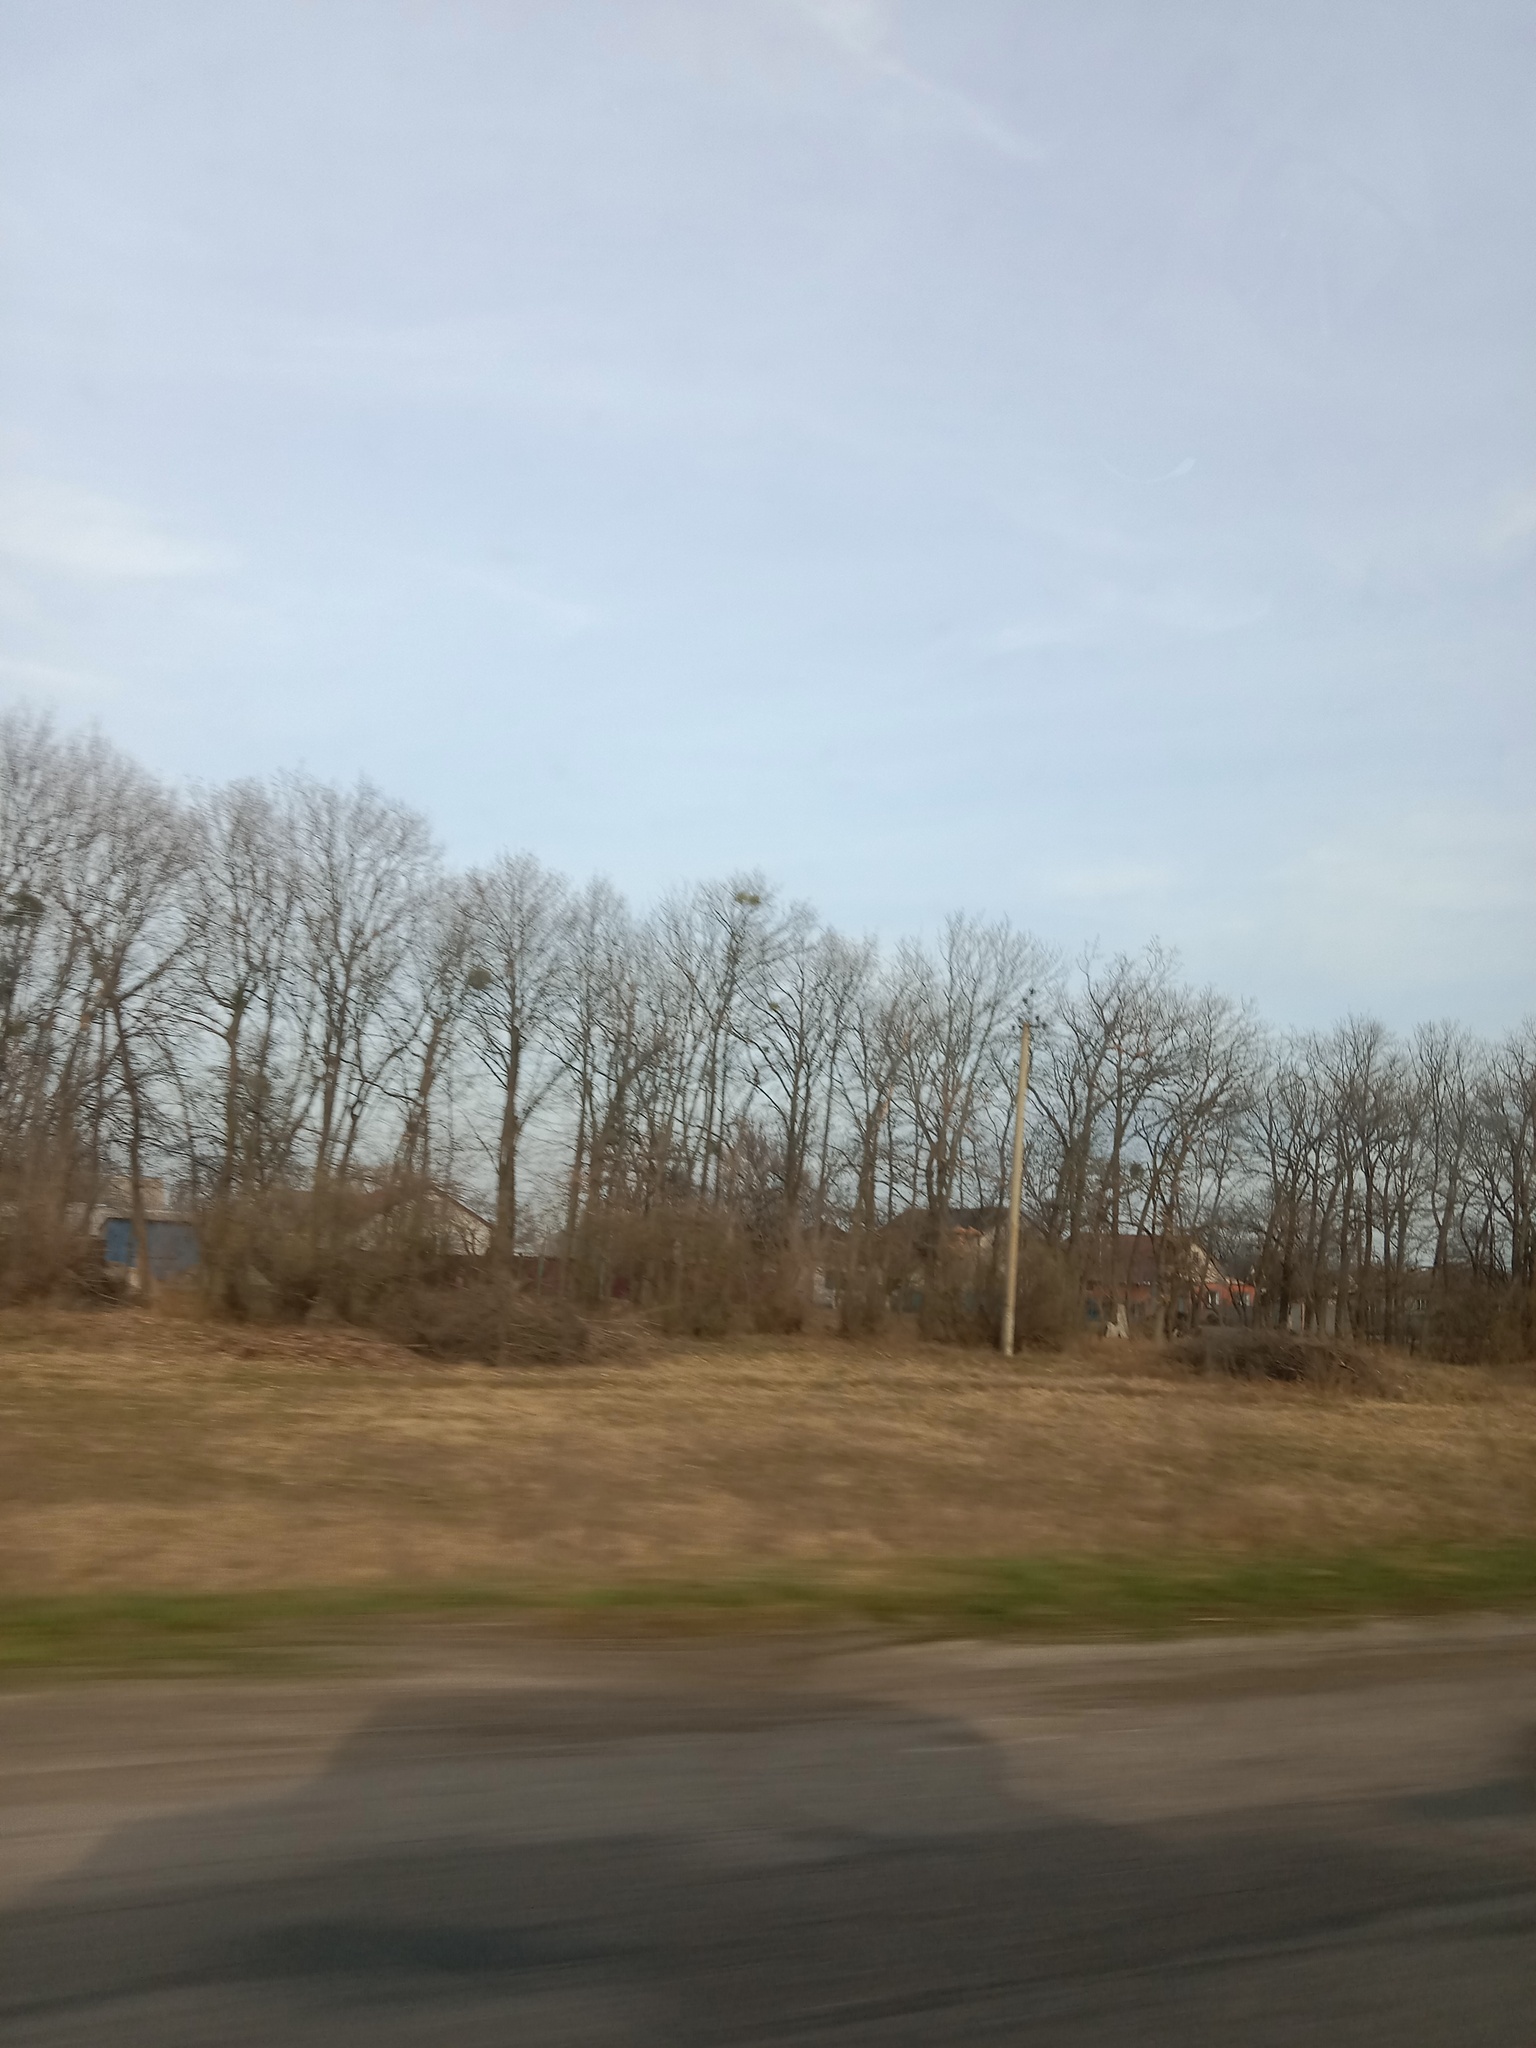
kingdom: Plantae
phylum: Tracheophyta
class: Magnoliopsida
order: Santalales
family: Viscaceae
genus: Viscum
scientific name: Viscum album
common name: Mistletoe
